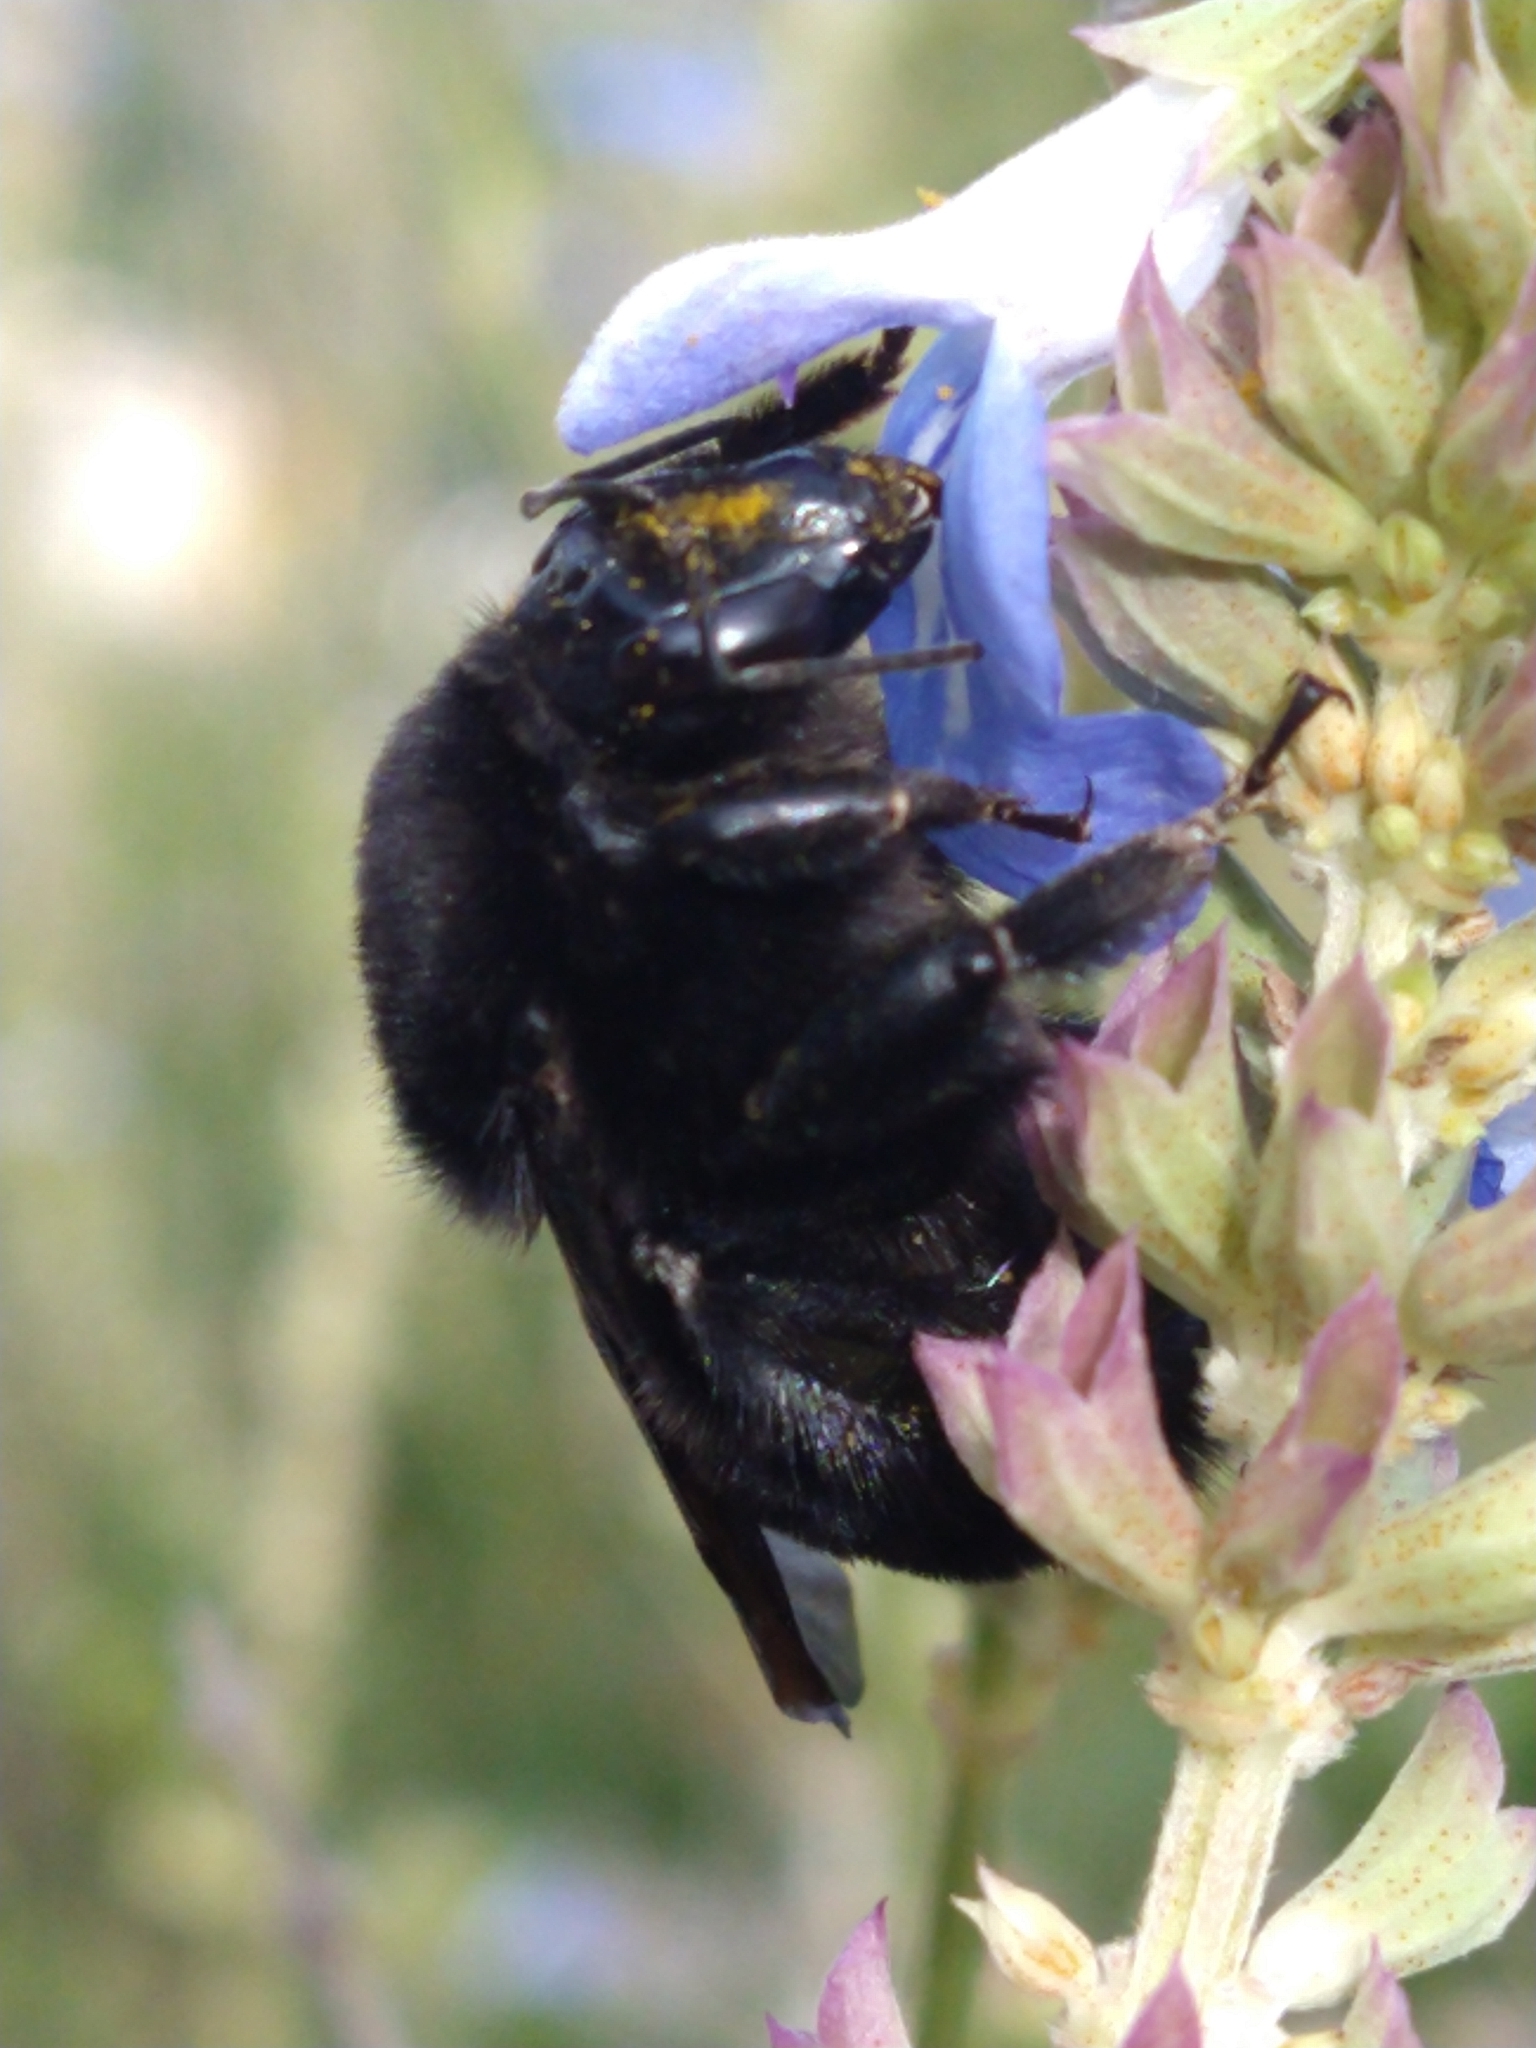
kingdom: Animalia
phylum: Arthropoda
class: Insecta
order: Hymenoptera
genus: Thoracobombus
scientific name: Thoracobombus
